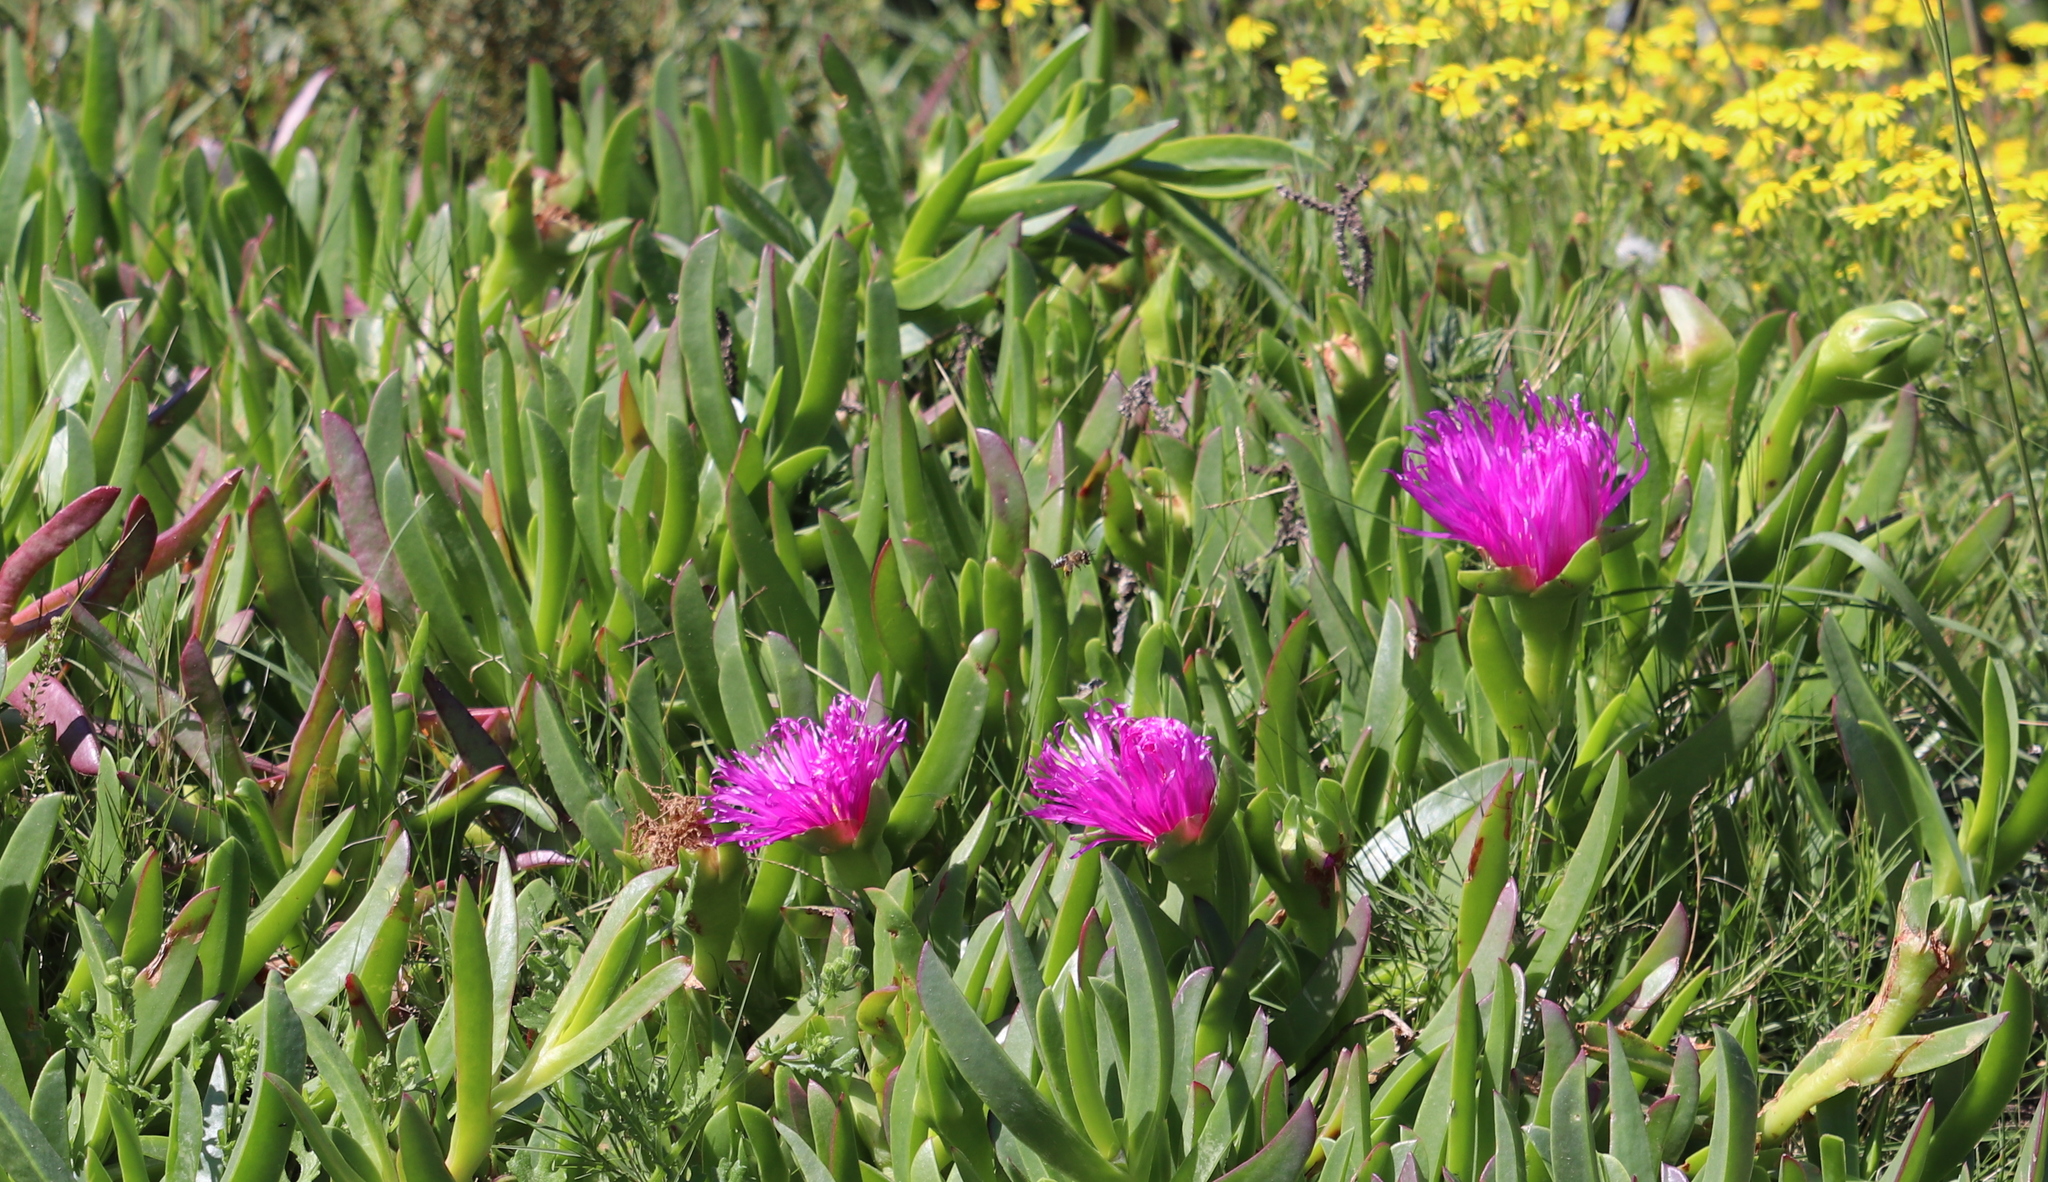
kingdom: Plantae
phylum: Tracheophyta
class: Magnoliopsida
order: Caryophyllales
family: Aizoaceae
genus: Carpobrotus
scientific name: Carpobrotus deliciosus
